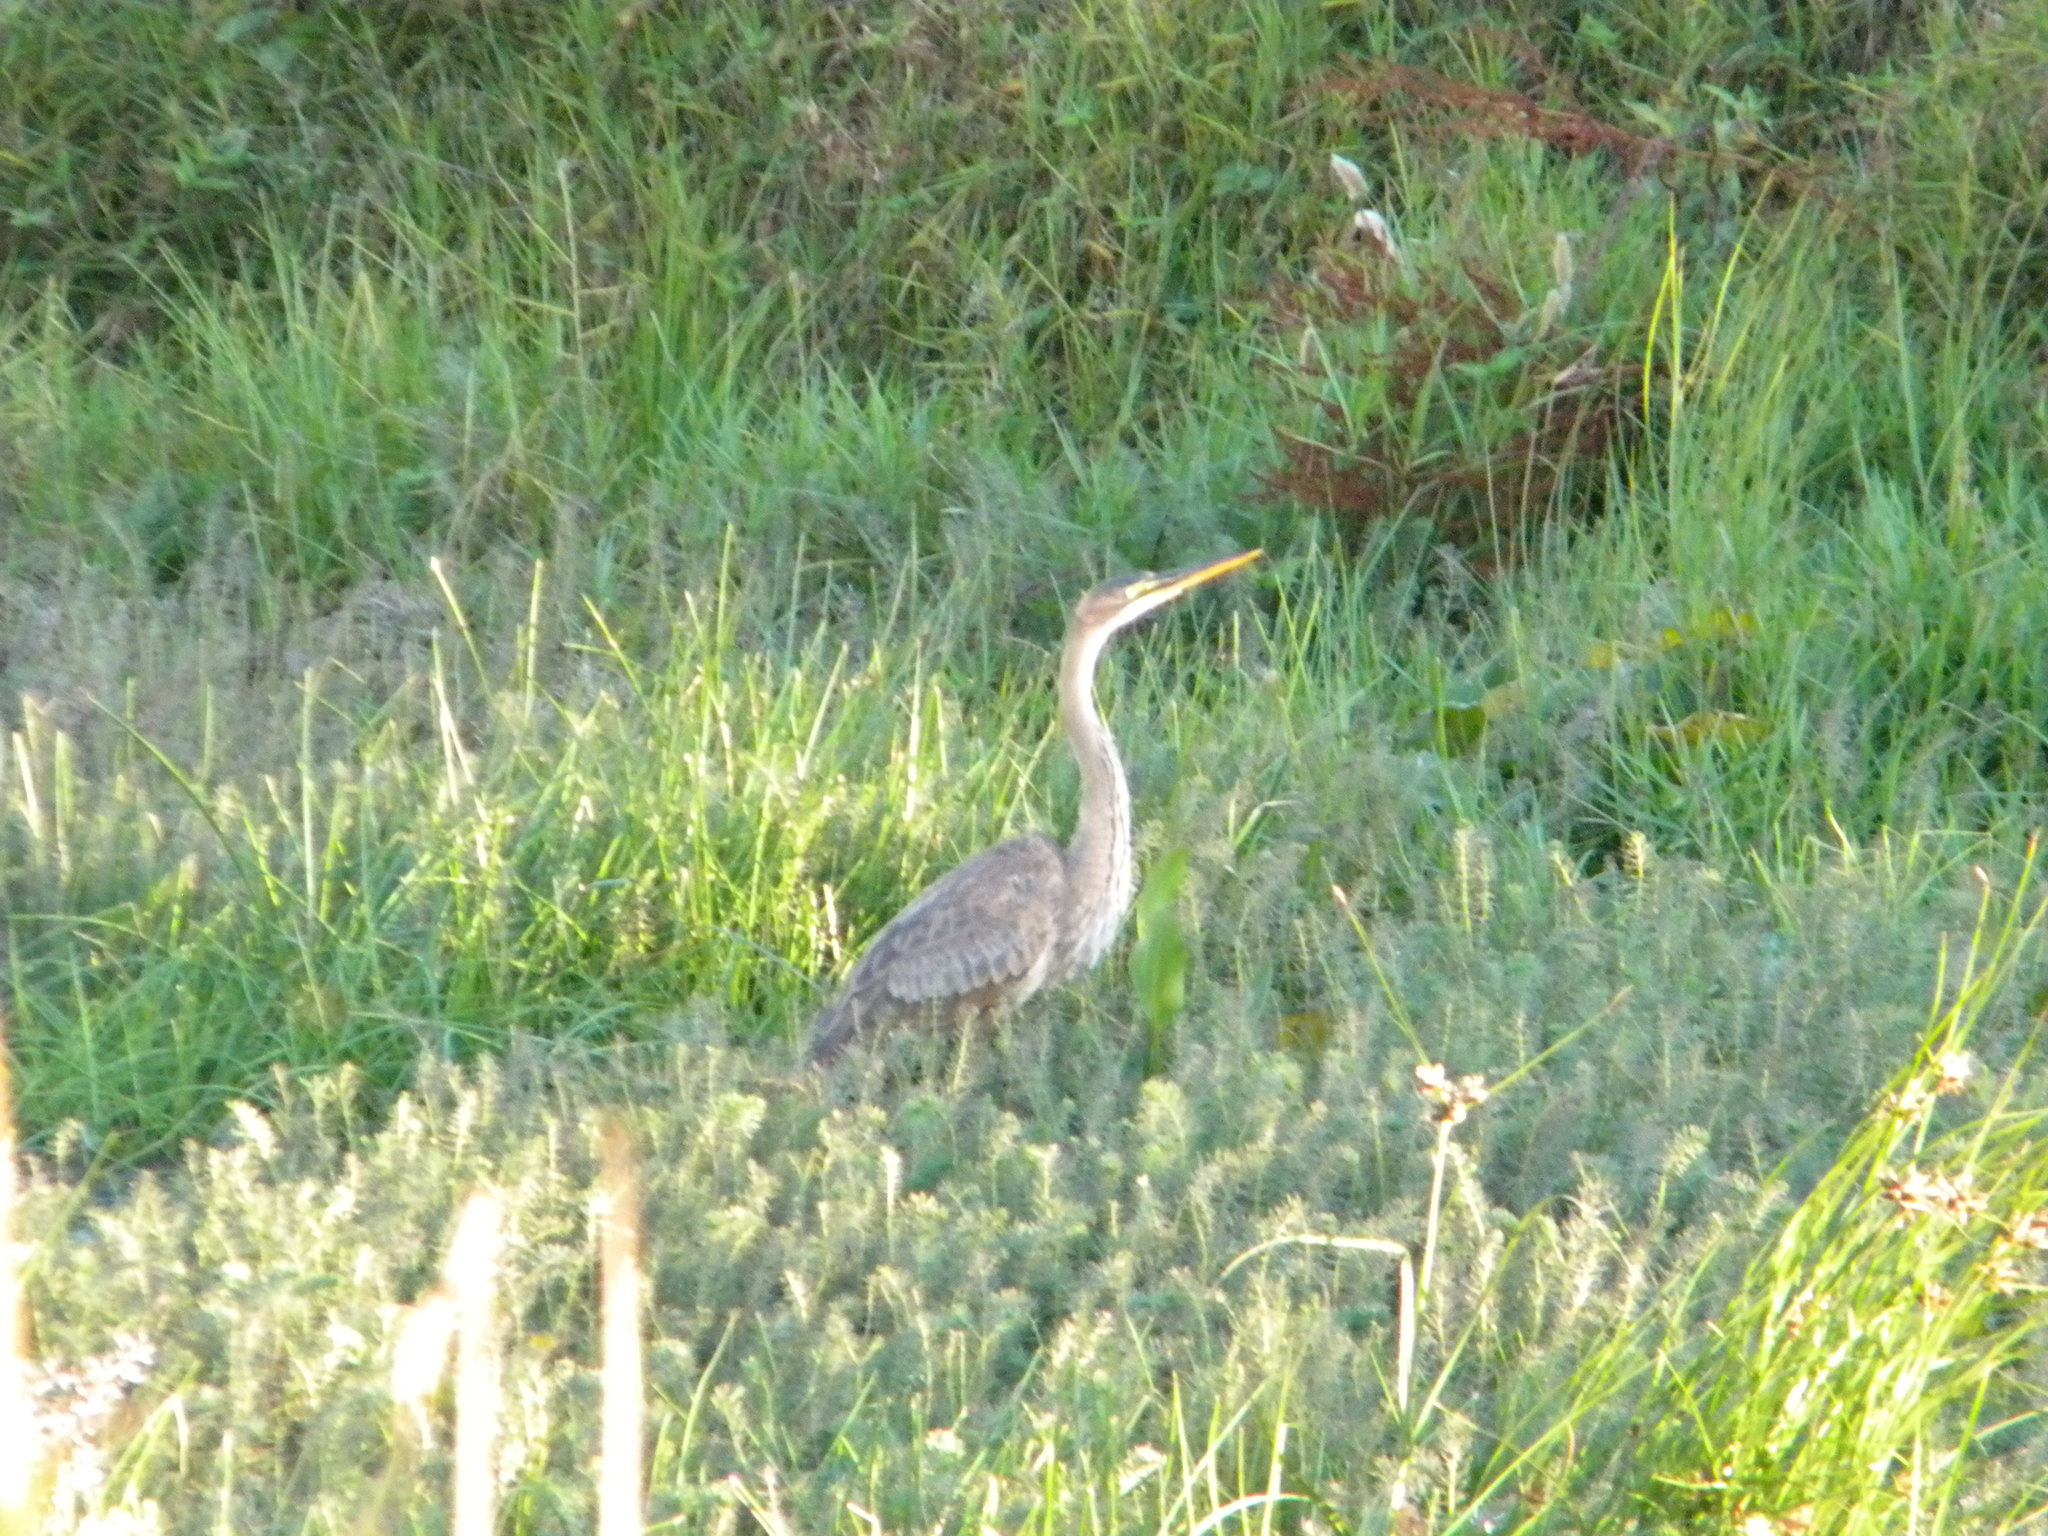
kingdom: Animalia
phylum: Chordata
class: Aves
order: Pelecaniformes
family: Ardeidae
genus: Ardea
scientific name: Ardea purpurea
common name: Purple heron
